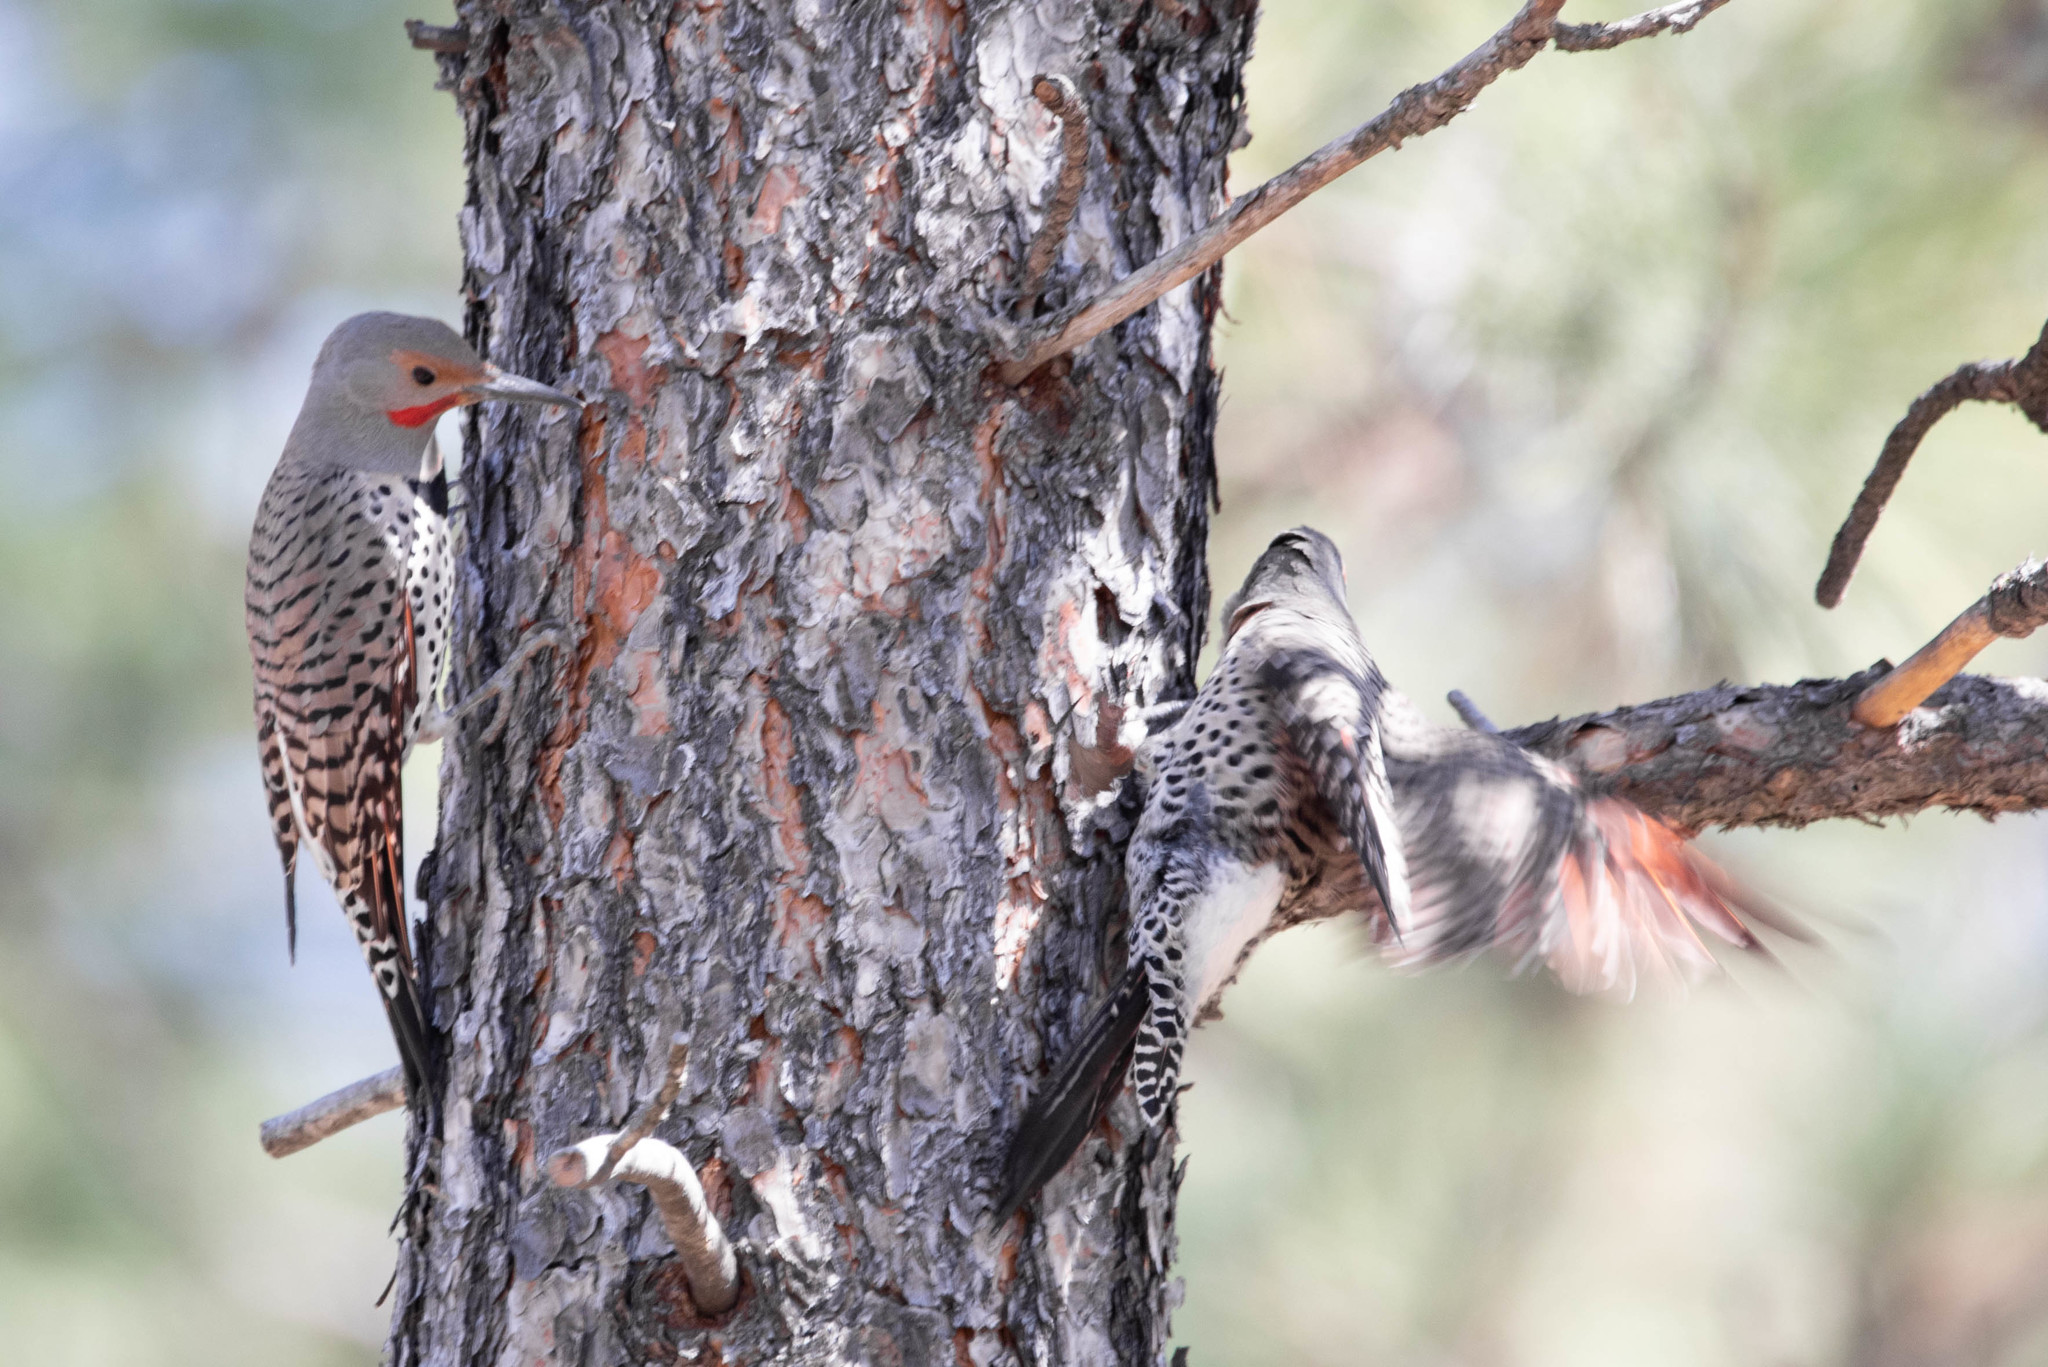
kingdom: Animalia
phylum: Chordata
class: Aves
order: Piciformes
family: Picidae
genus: Colaptes
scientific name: Colaptes auratus
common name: Northern flicker
